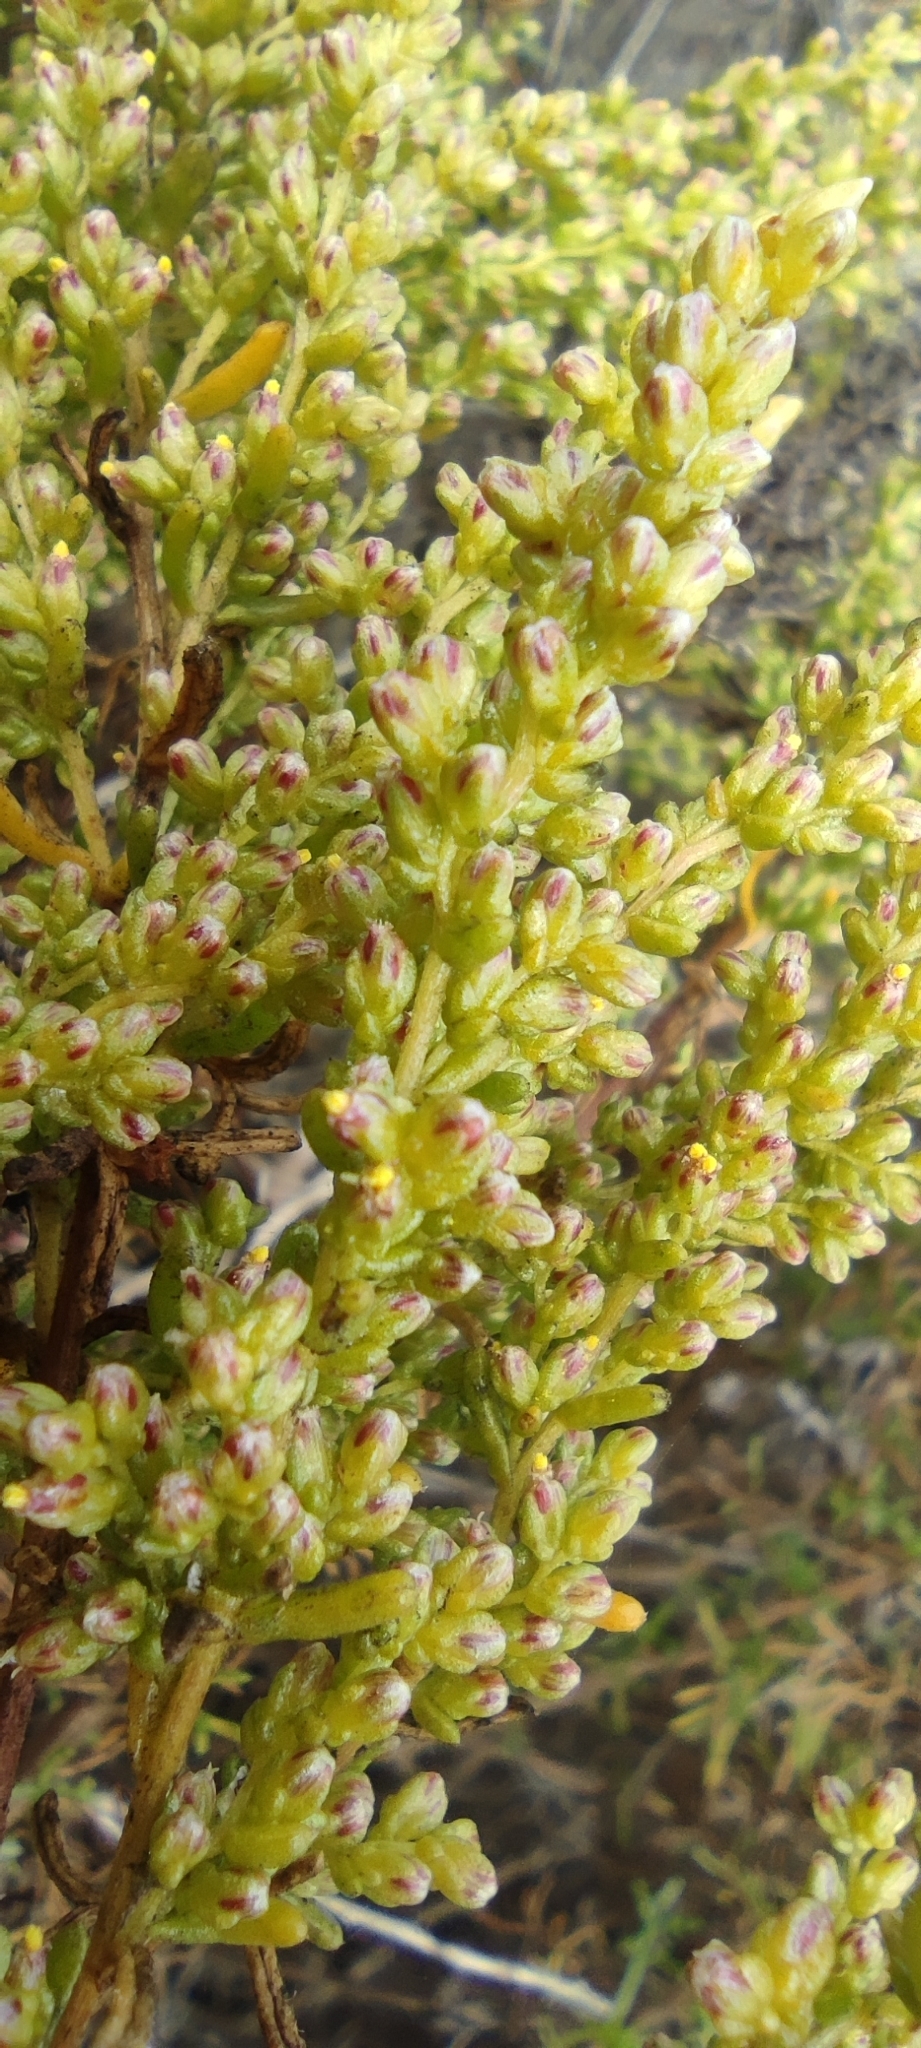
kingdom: Plantae
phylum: Tracheophyta
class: Magnoliopsida
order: Asterales
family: Asteraceae
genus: Artemisia
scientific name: Artemisia campestris
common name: Field wormwood
